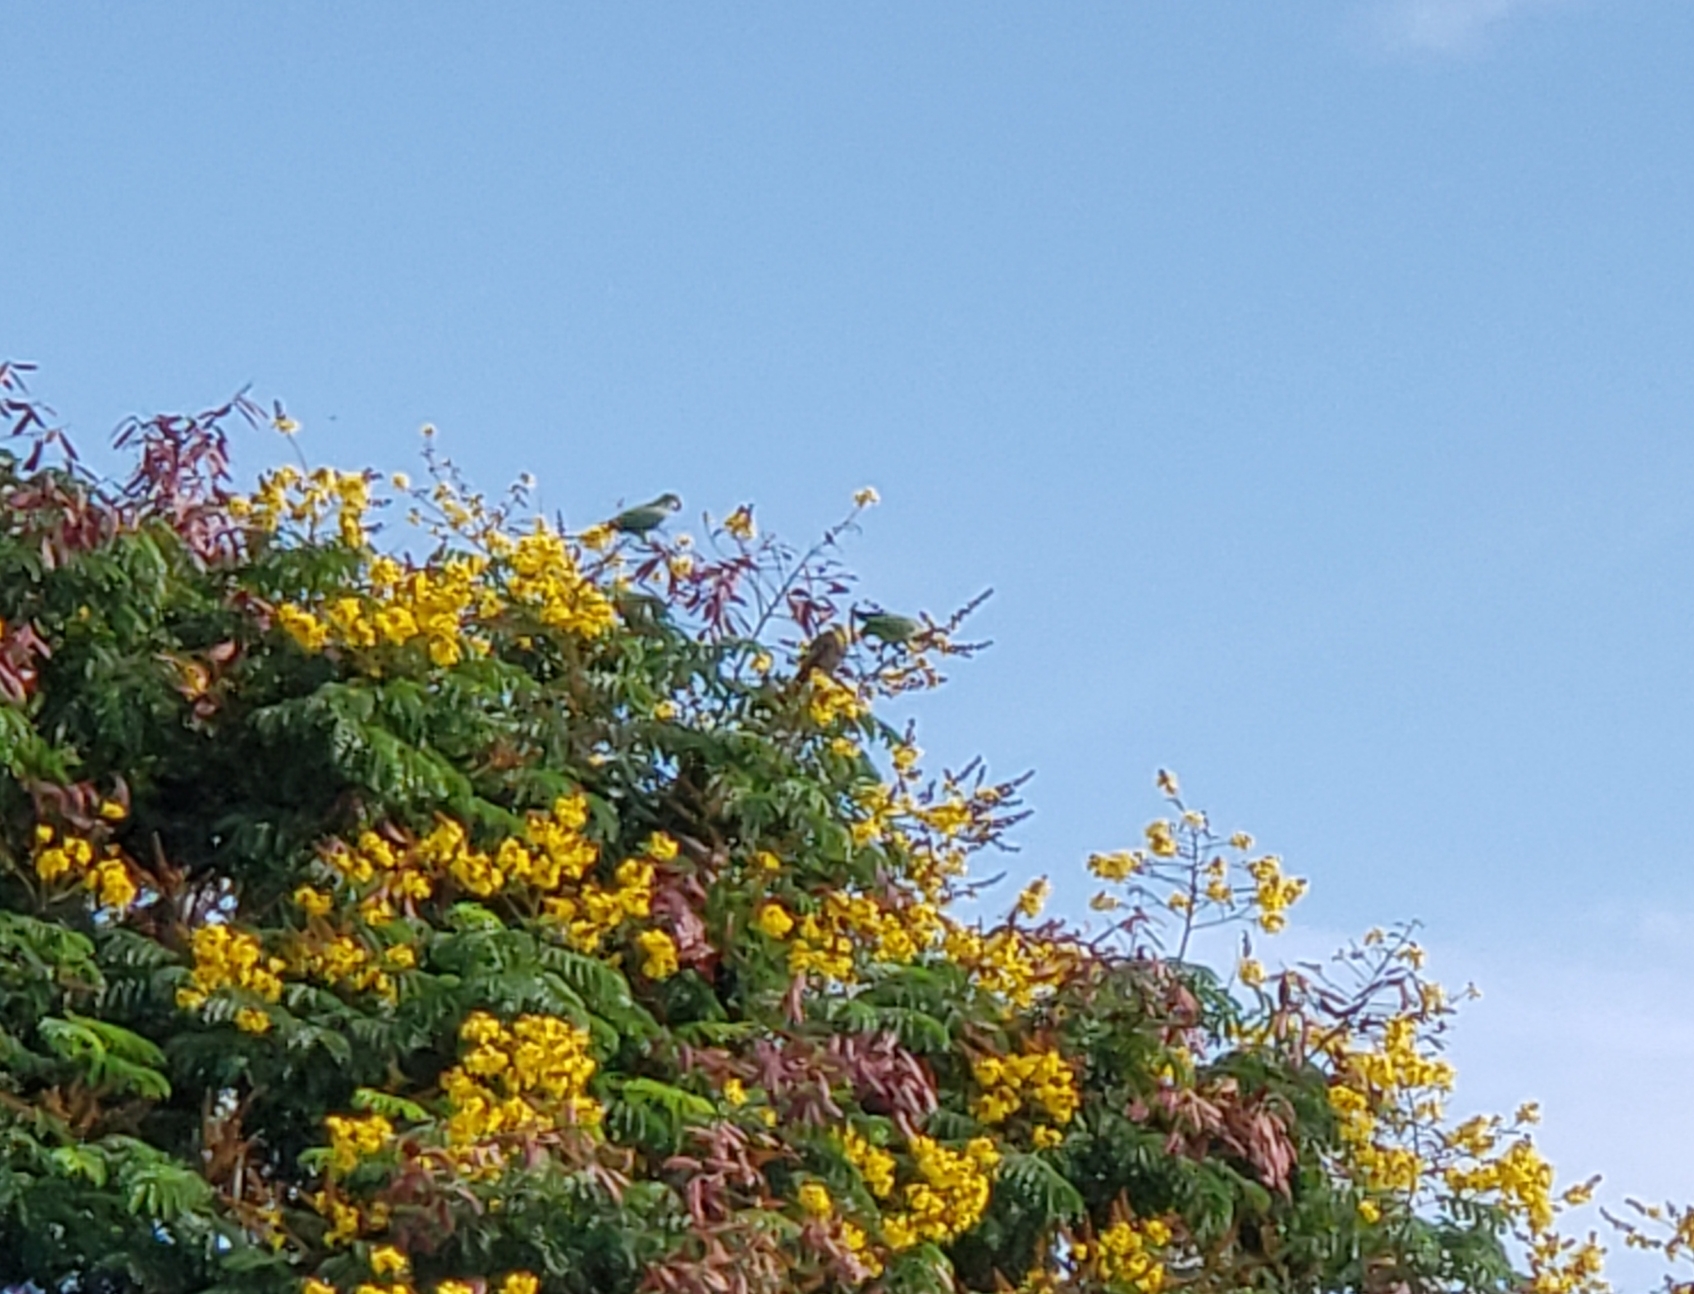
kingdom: Animalia
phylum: Chordata
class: Aves
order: Psittaciformes
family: Psittacidae
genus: Myiopsitta
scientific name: Myiopsitta monachus
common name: Monk parakeet
